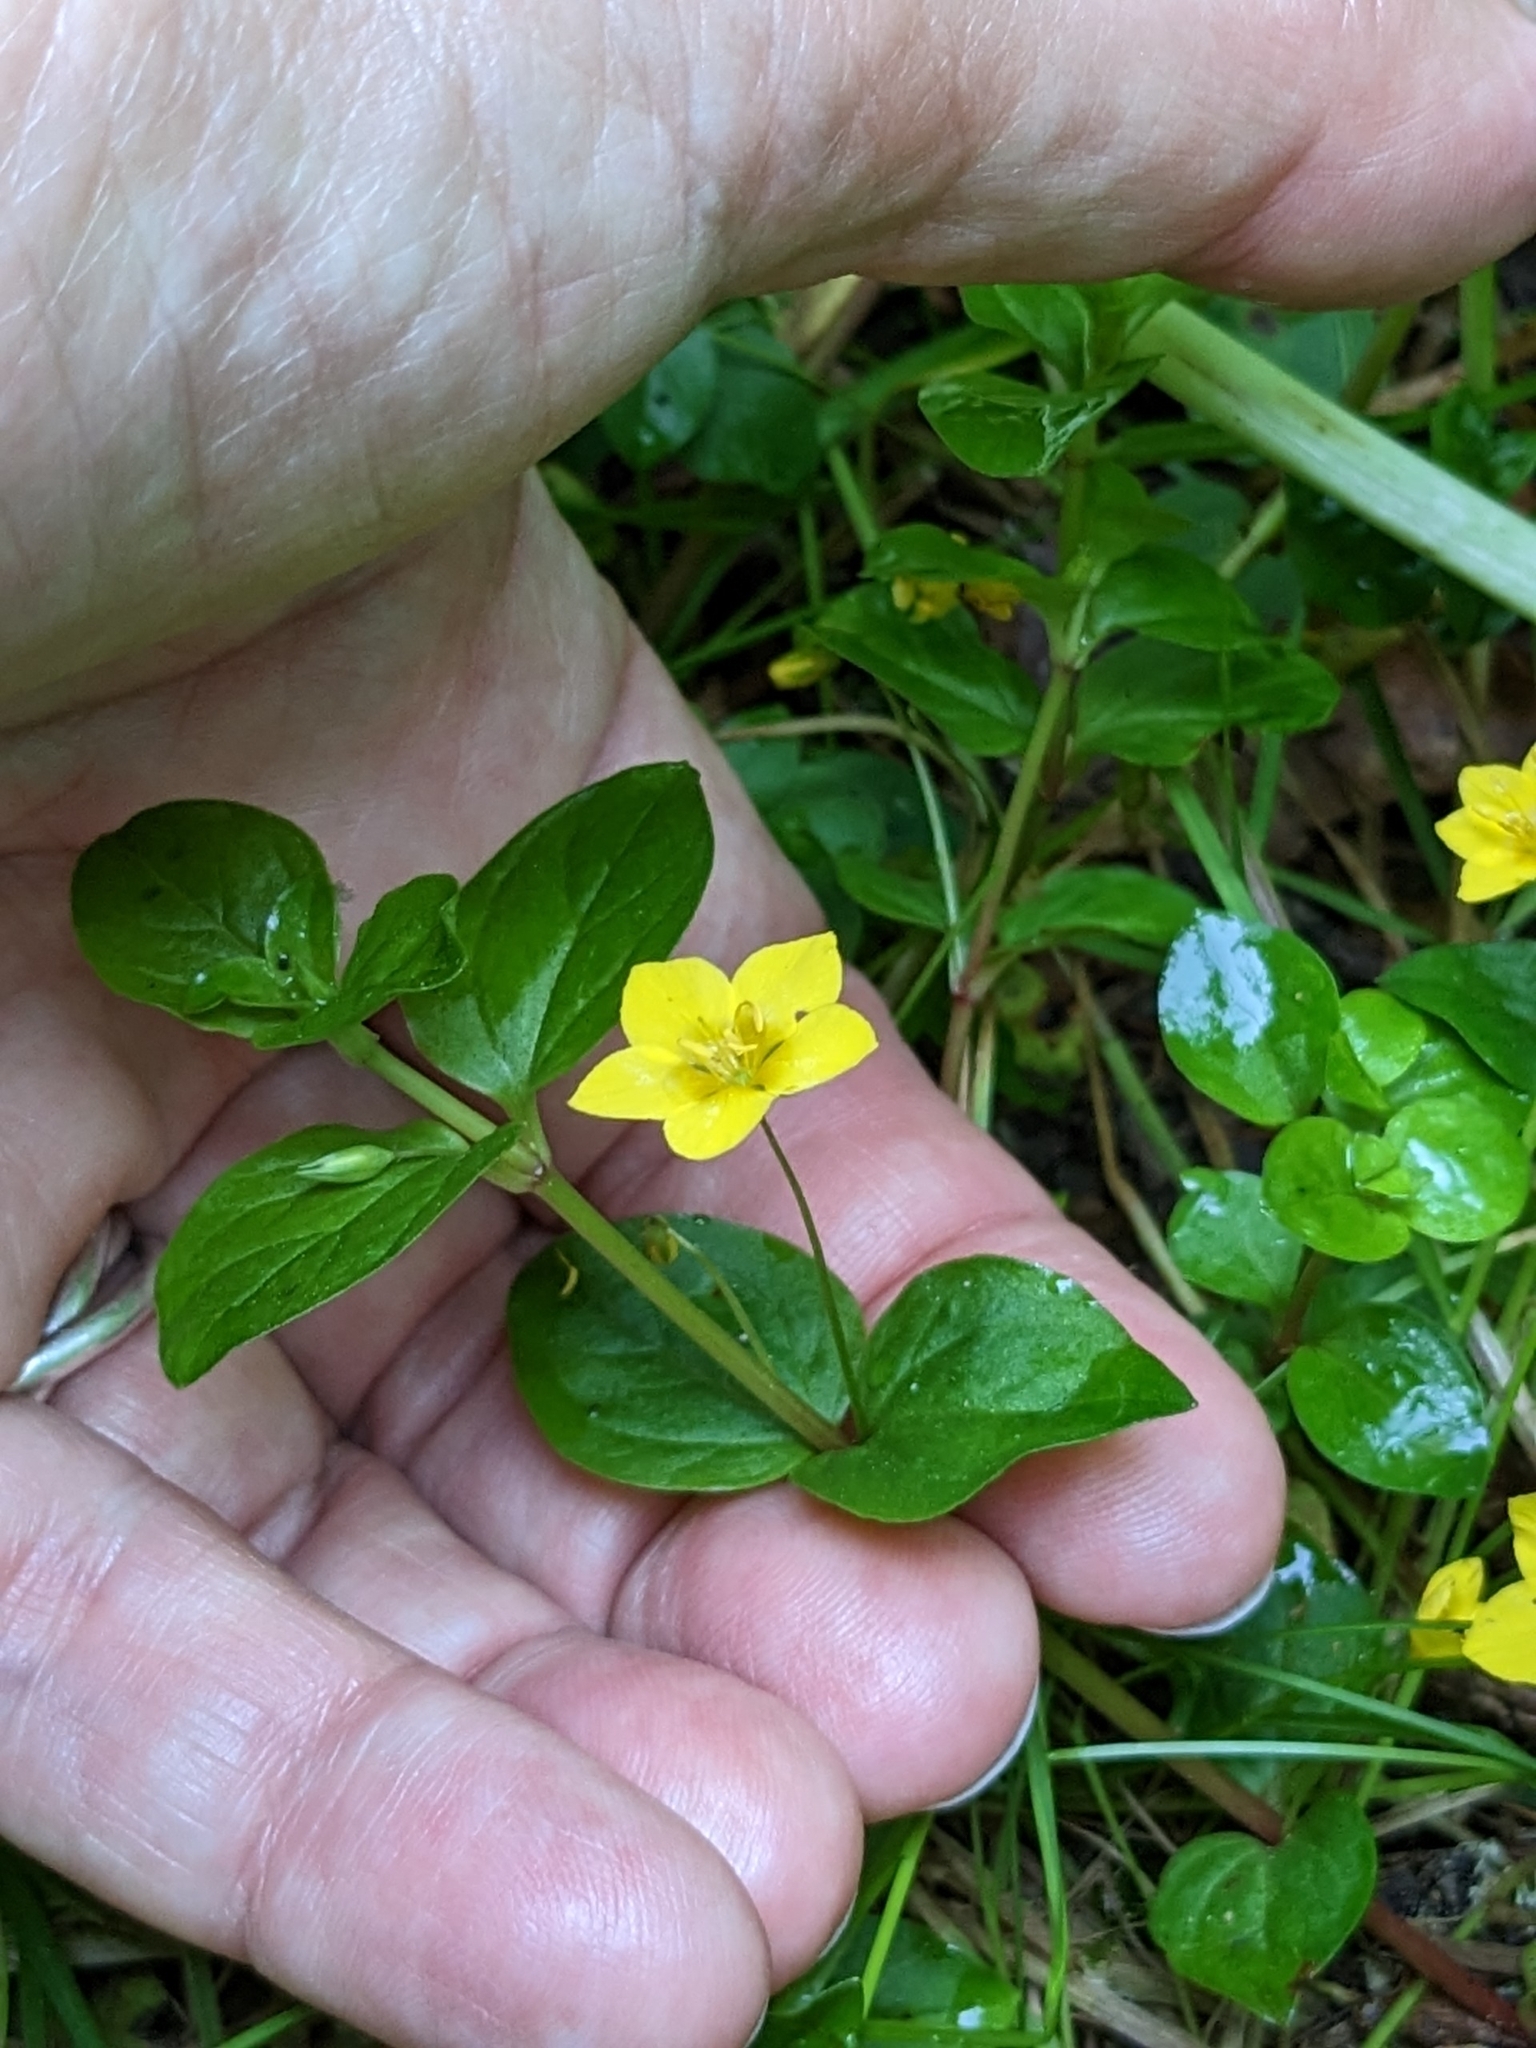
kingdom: Plantae
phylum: Tracheophyta
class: Magnoliopsida
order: Ericales
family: Primulaceae
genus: Lysimachia
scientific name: Lysimachia nemorum
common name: Yellow pimpernel
